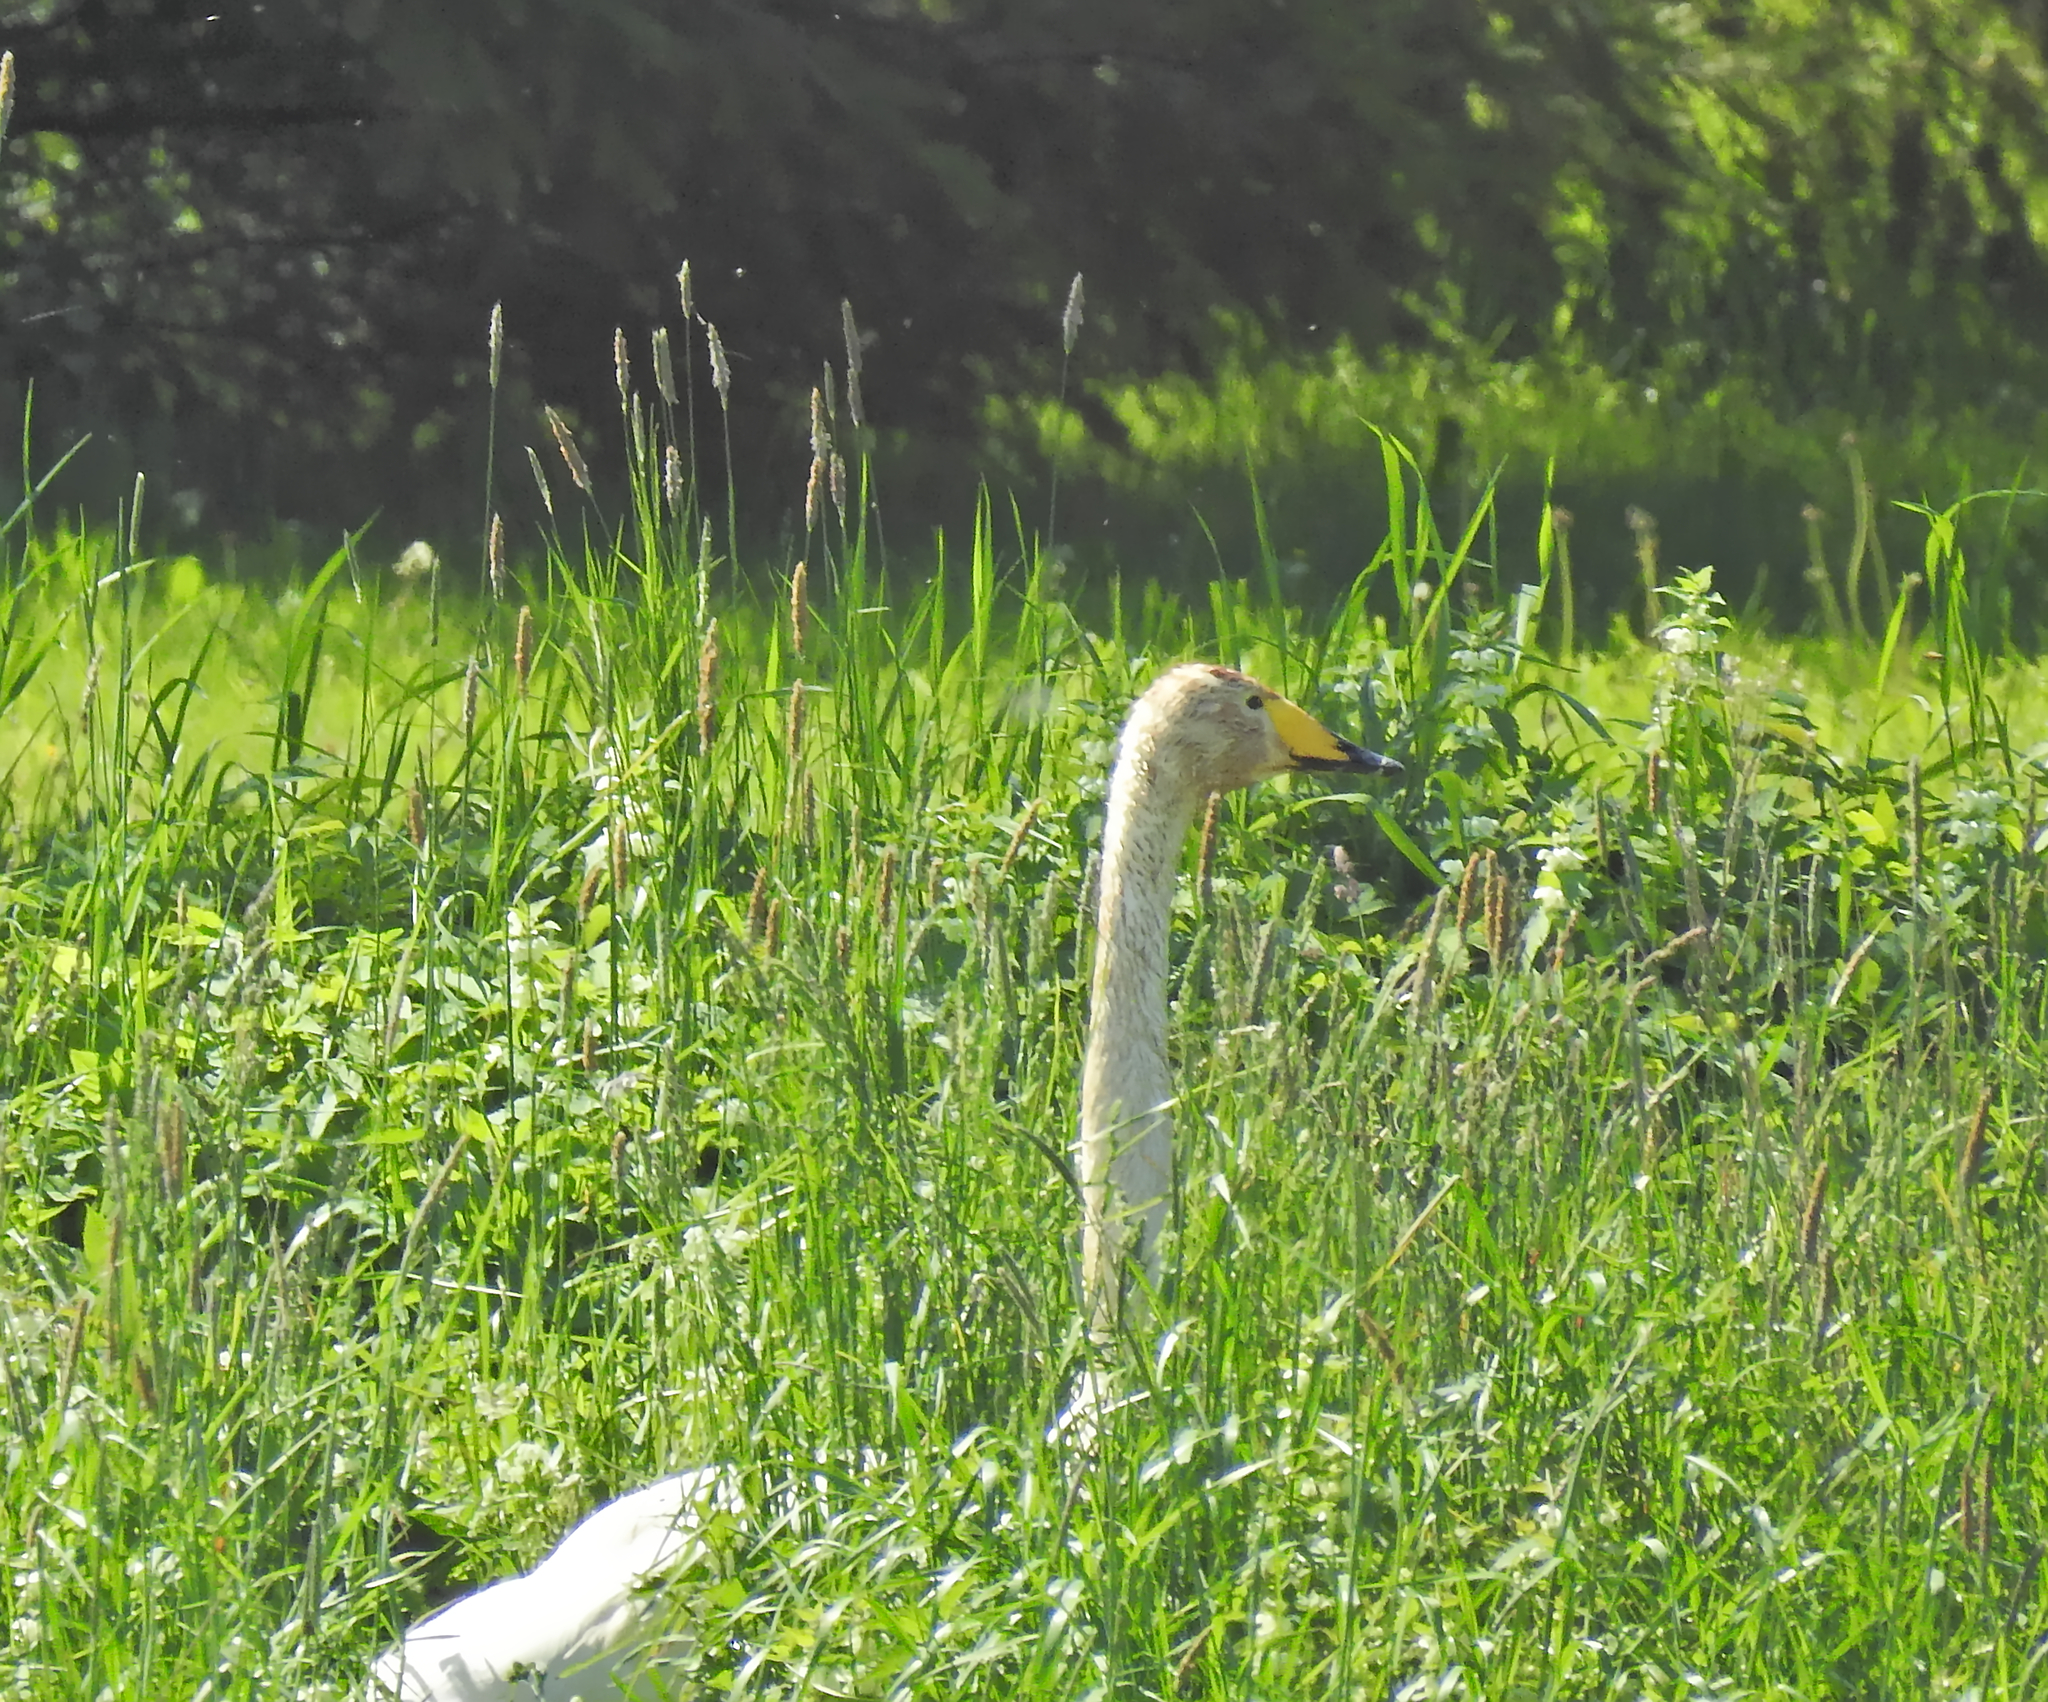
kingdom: Animalia
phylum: Chordata
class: Aves
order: Anseriformes
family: Anatidae
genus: Cygnus
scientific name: Cygnus cygnus
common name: Whooper swan
